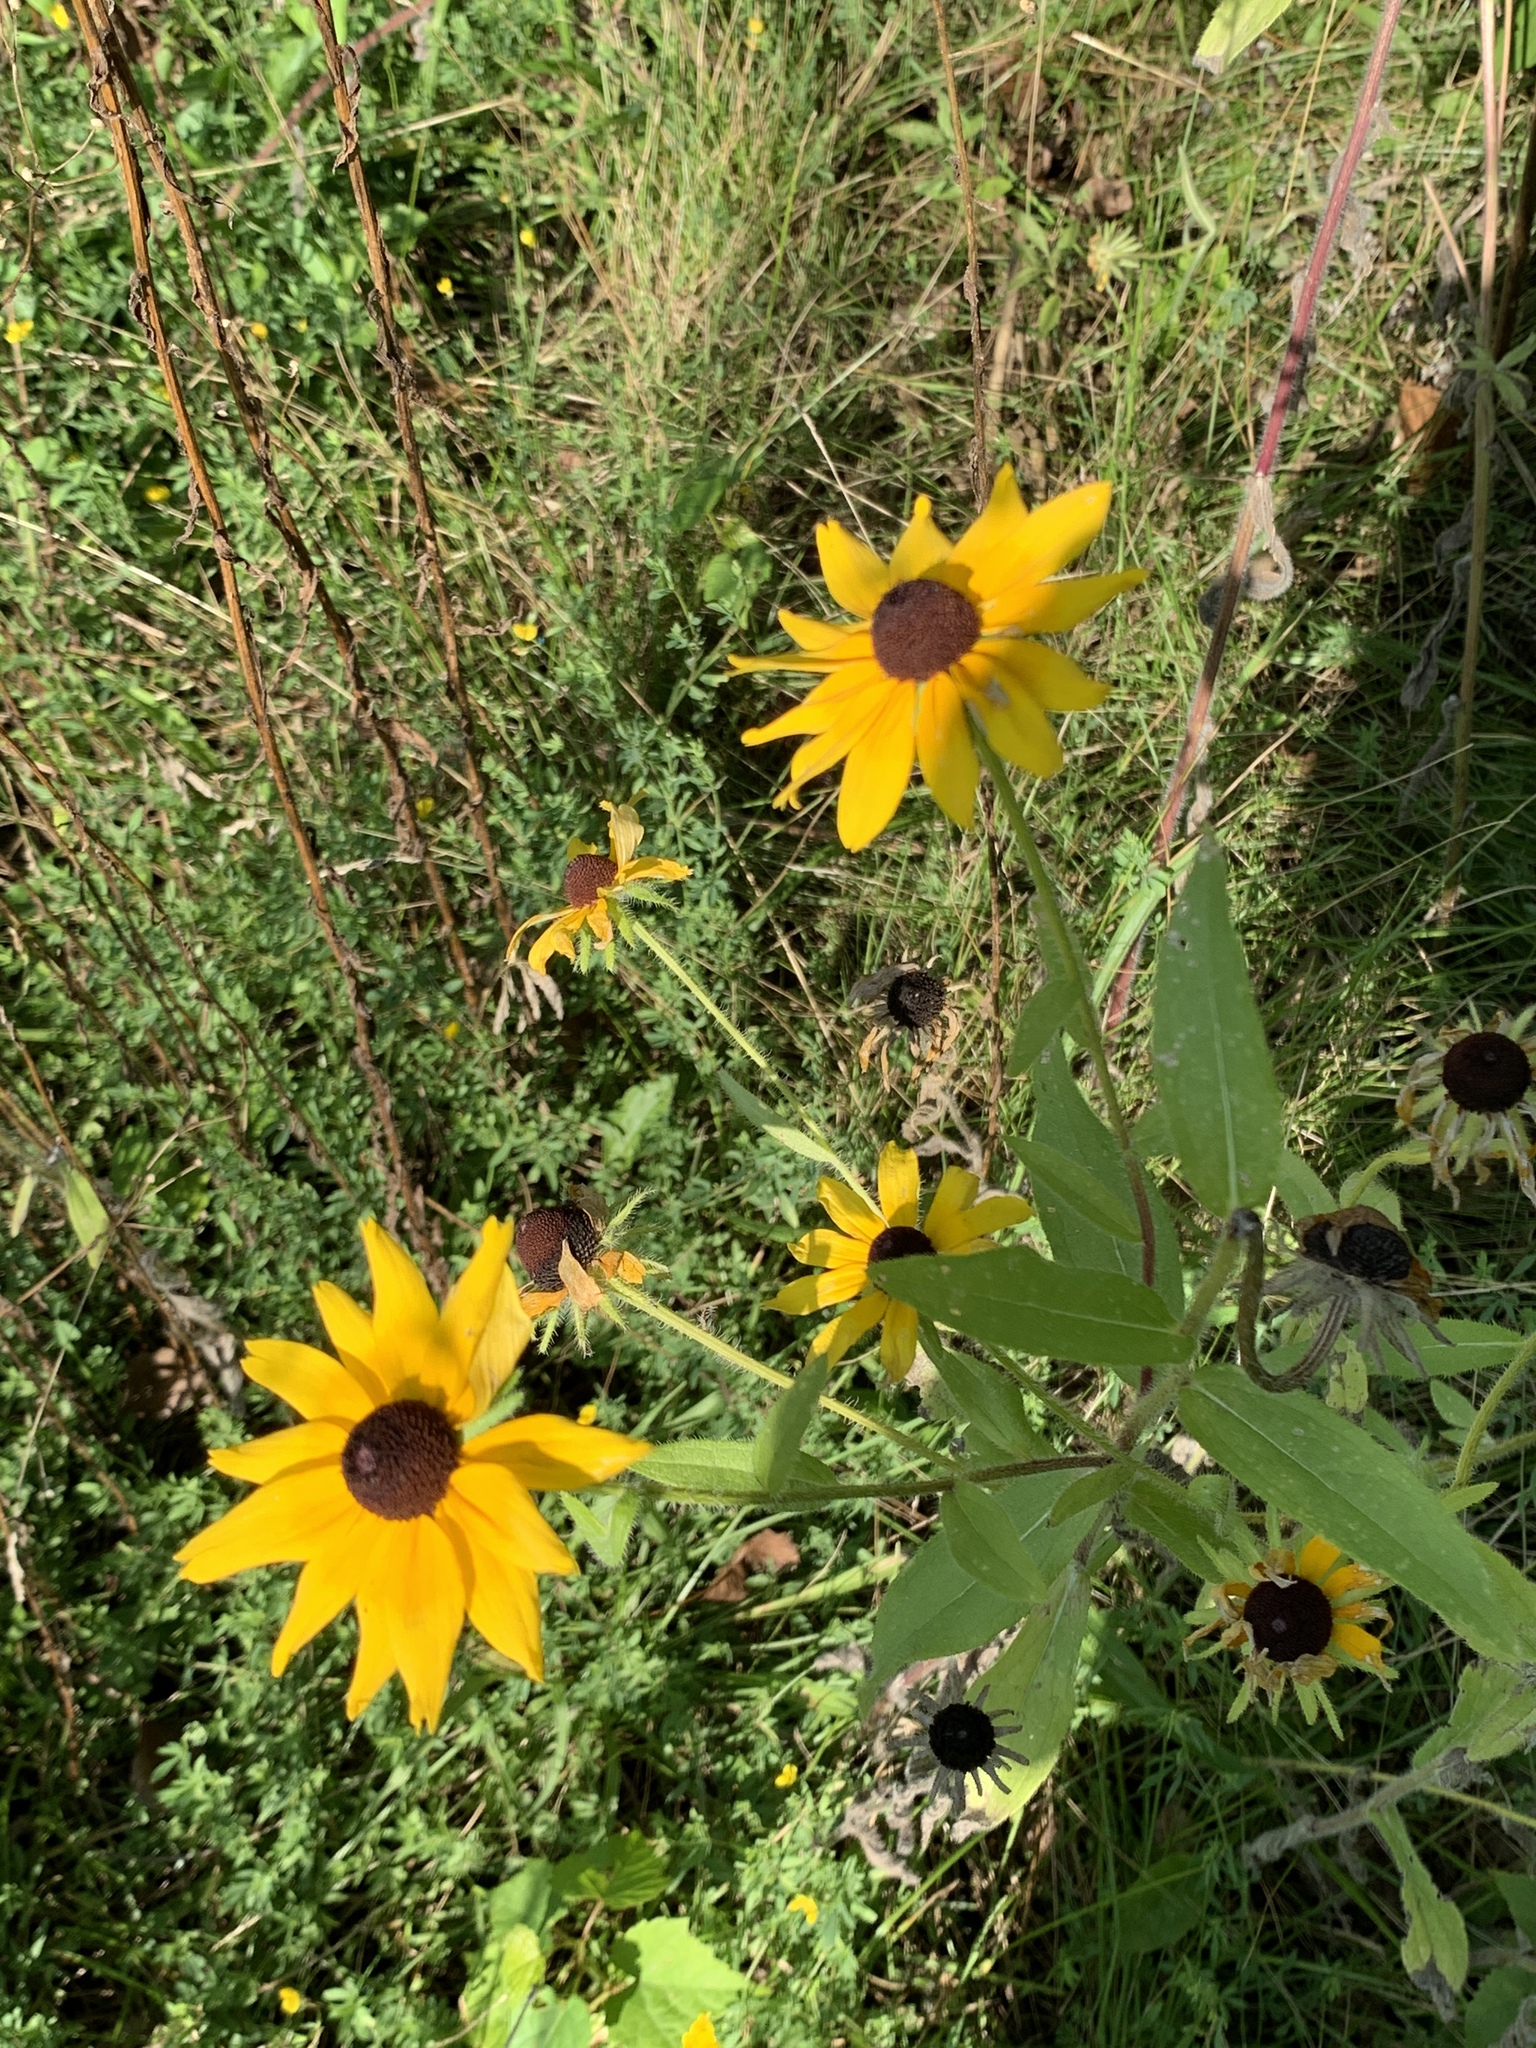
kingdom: Plantae
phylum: Tracheophyta
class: Magnoliopsida
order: Asterales
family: Asteraceae
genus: Rudbeckia
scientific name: Rudbeckia hirta
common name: Black-eyed-susan
